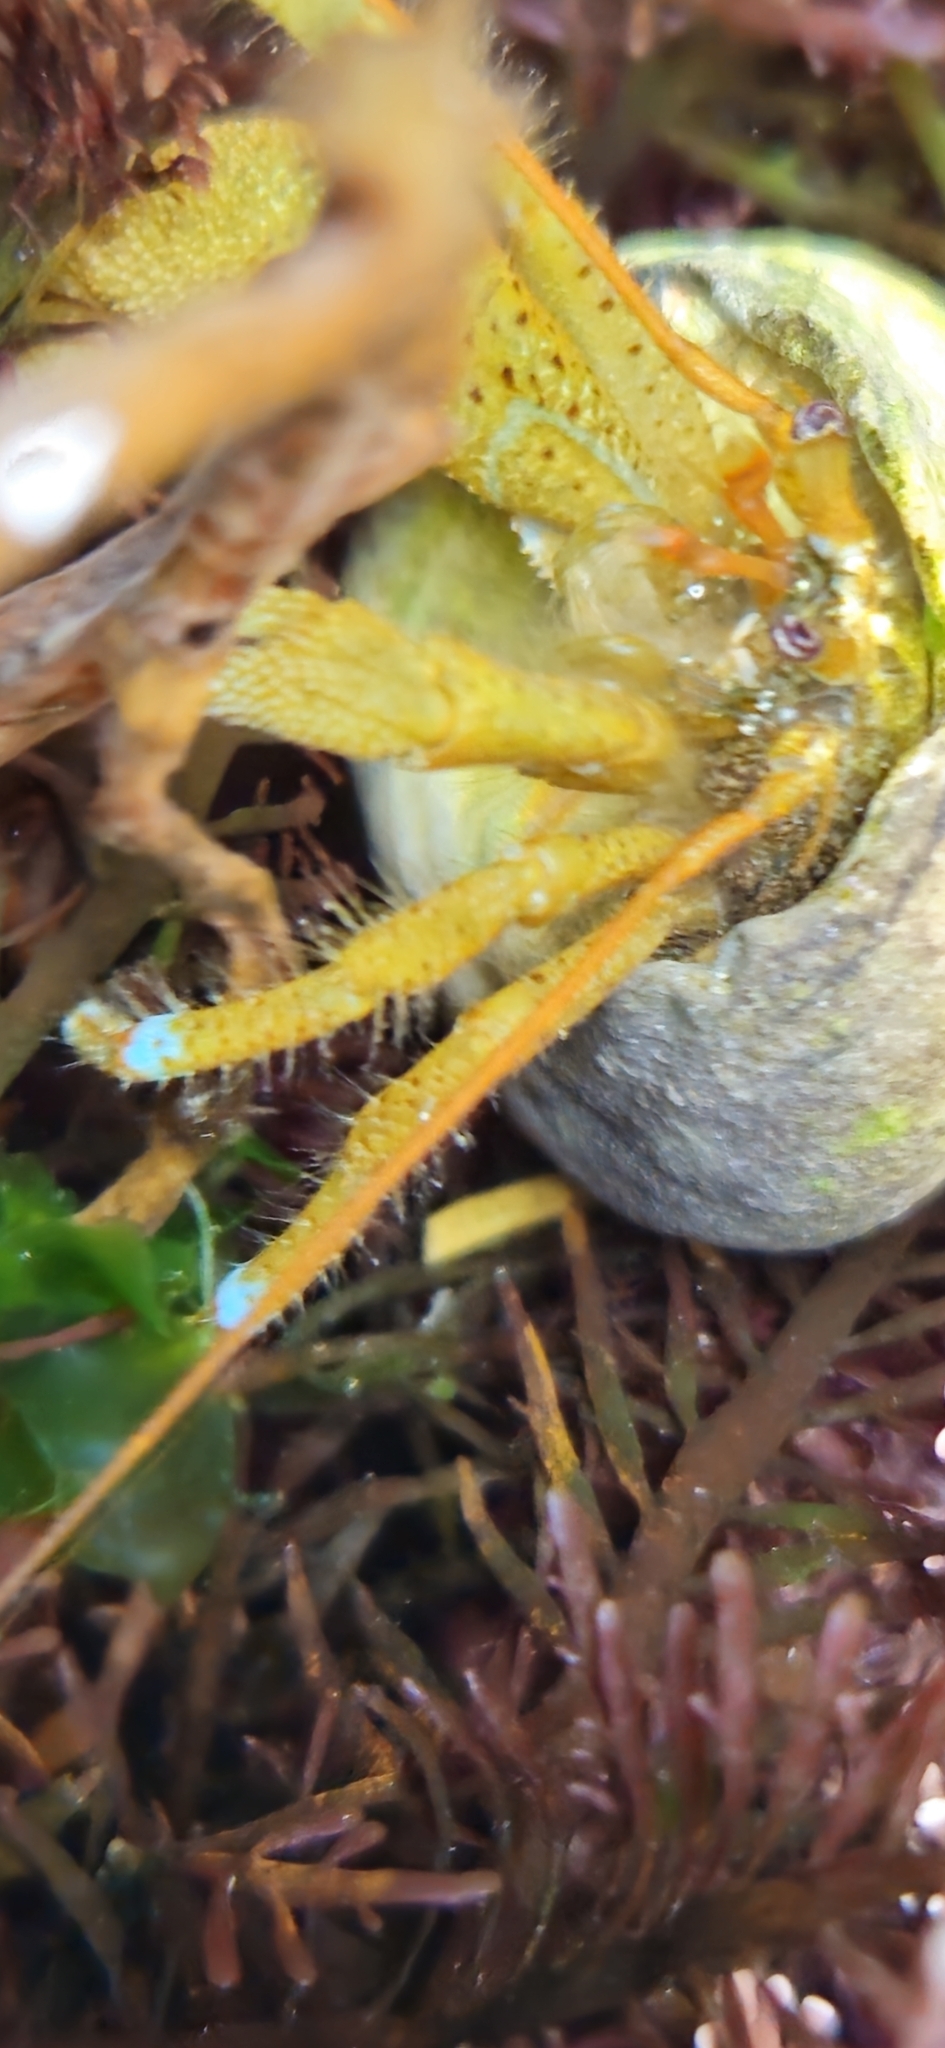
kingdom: Animalia
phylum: Arthropoda
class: Malacostraca
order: Decapoda
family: Paguridae
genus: Pagurus
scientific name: Pagurus samuelis
